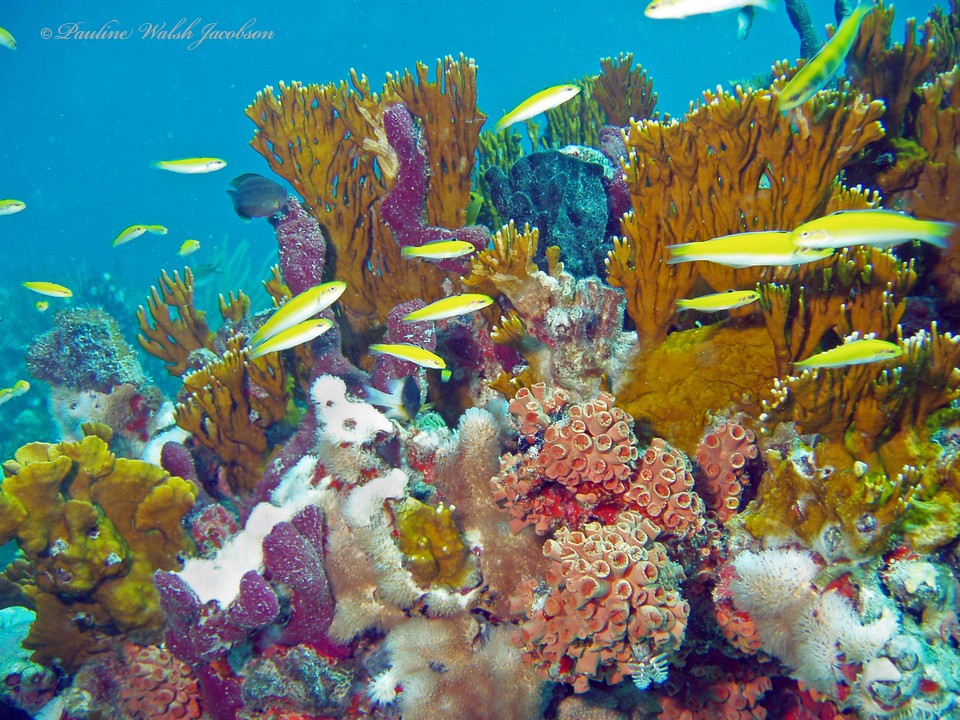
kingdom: Animalia
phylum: Chordata
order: Perciformes
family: Labridae
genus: Thalassoma
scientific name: Thalassoma bifasciatum
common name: Bluehead wrasse
